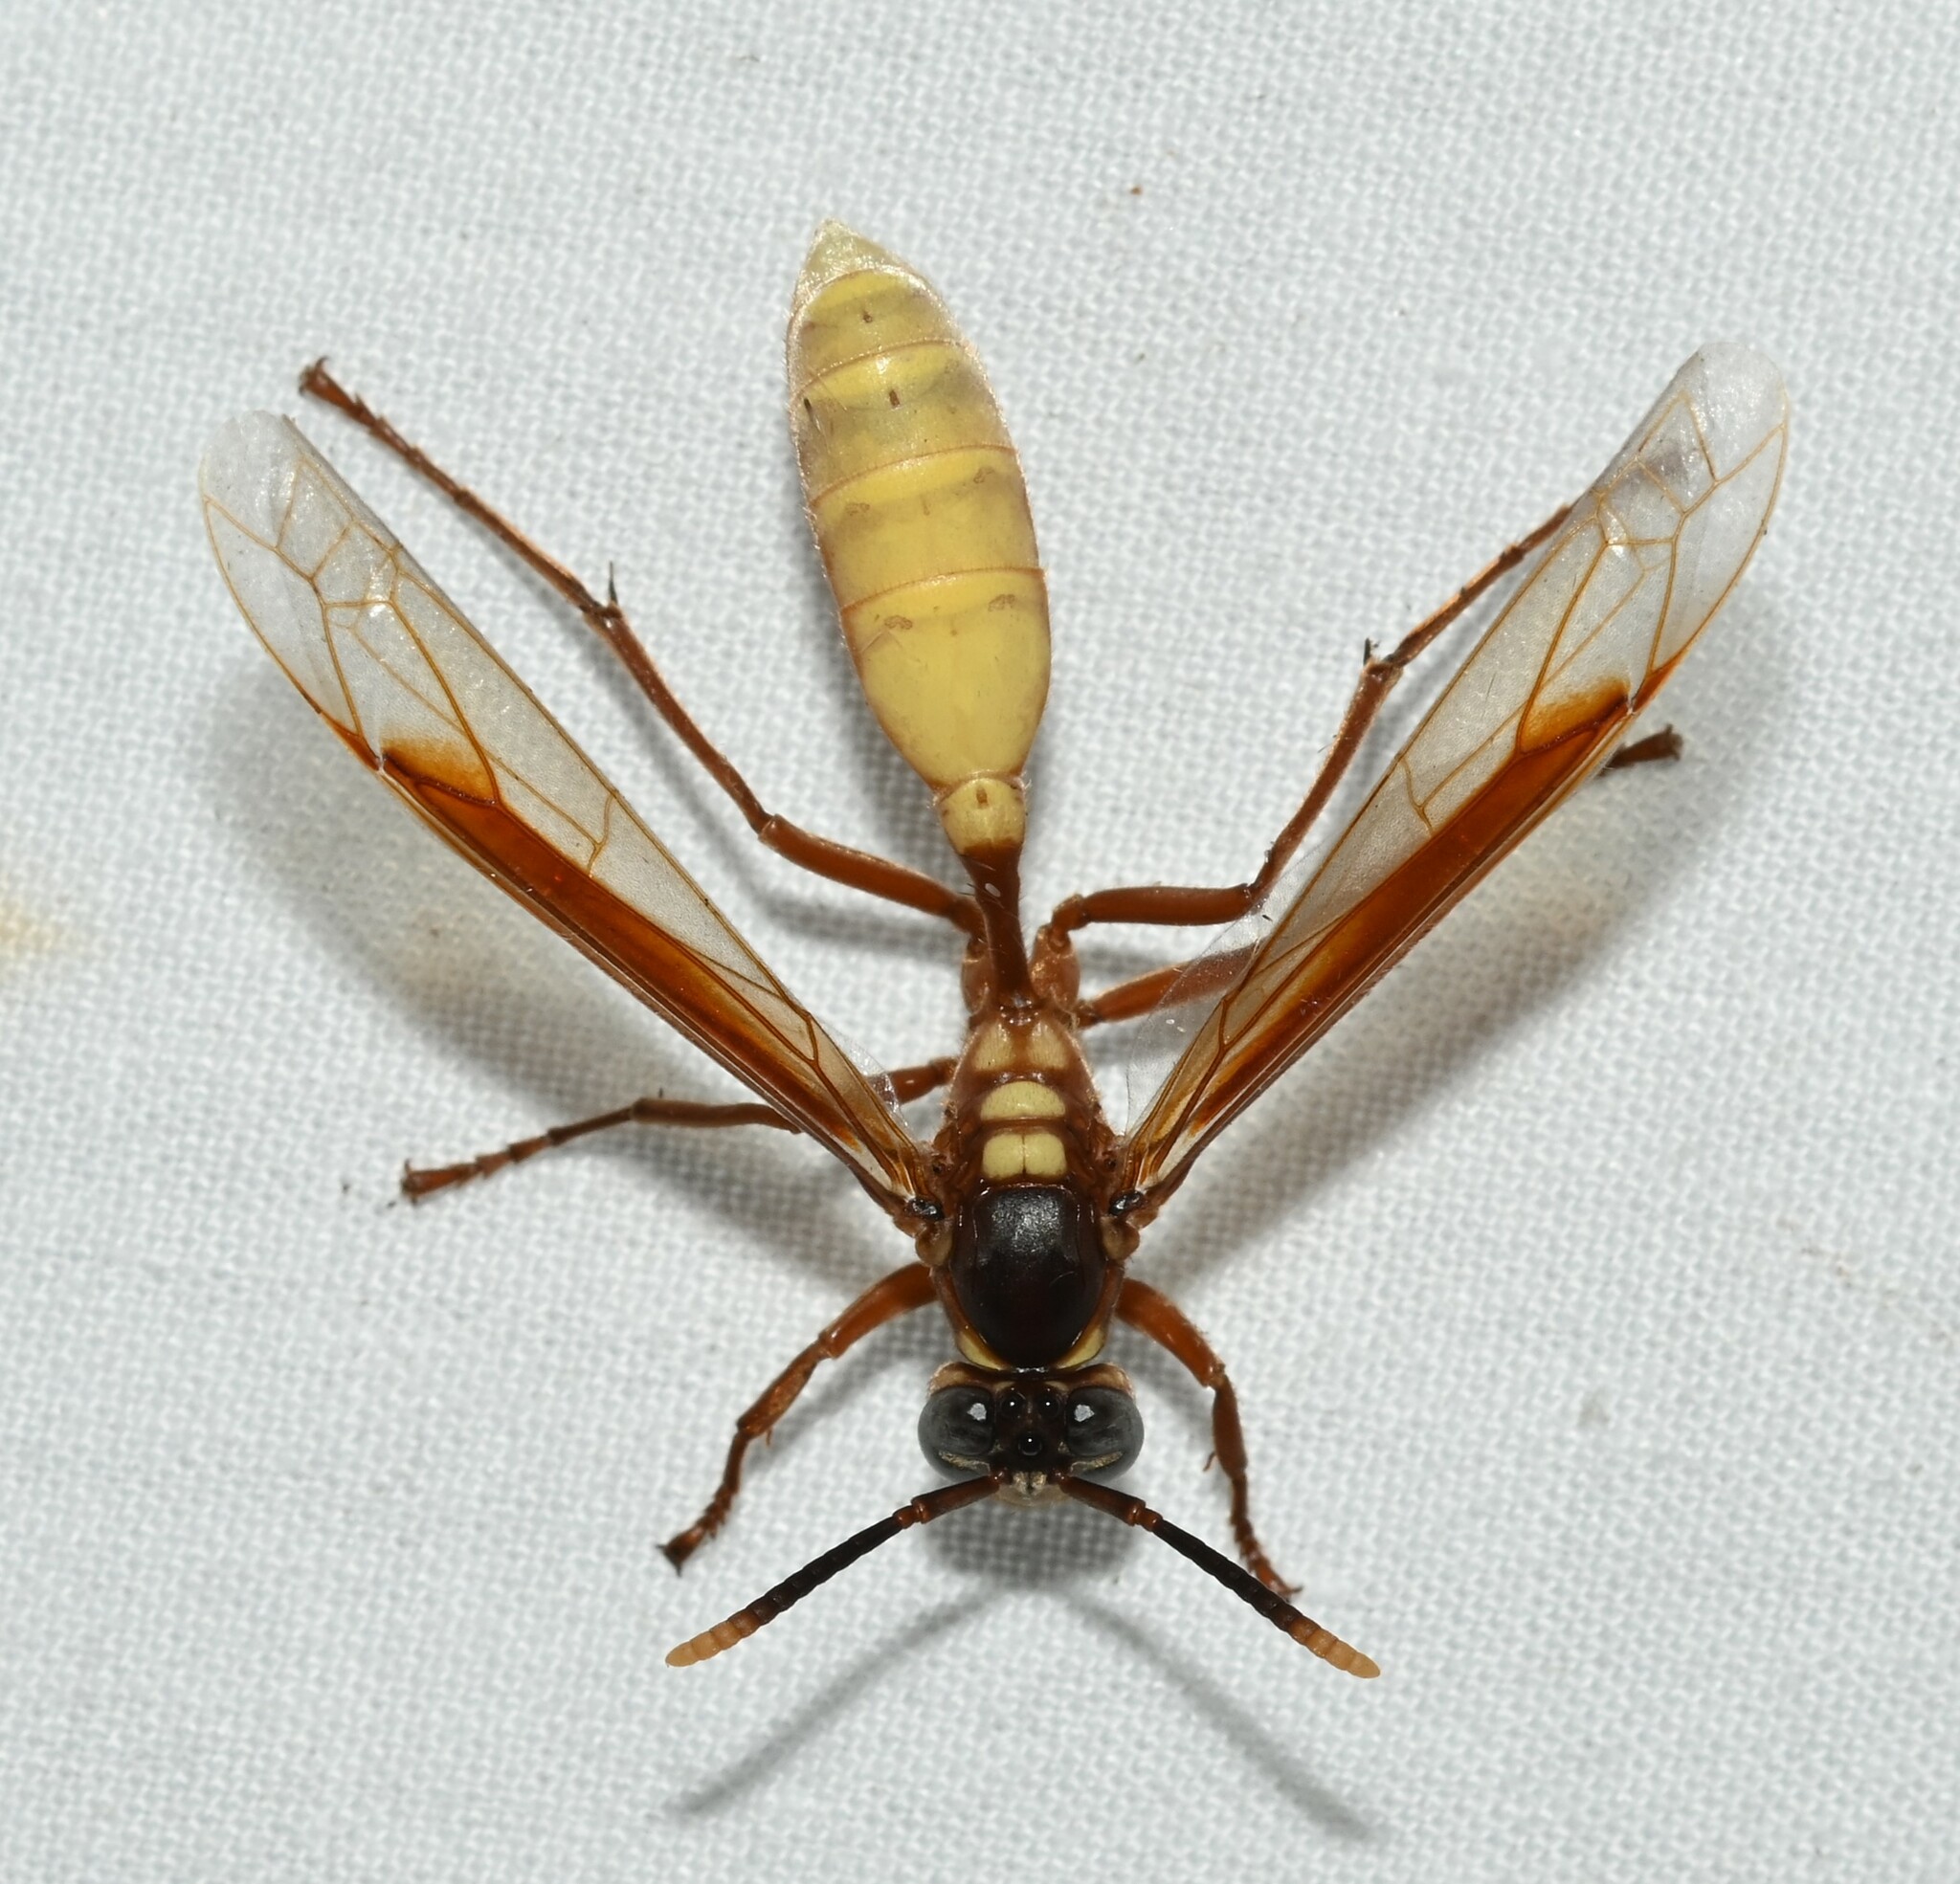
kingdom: Animalia
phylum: Arthropoda
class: Insecta
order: Hymenoptera
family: Vespidae
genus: Apoica
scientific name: Apoica pallens
